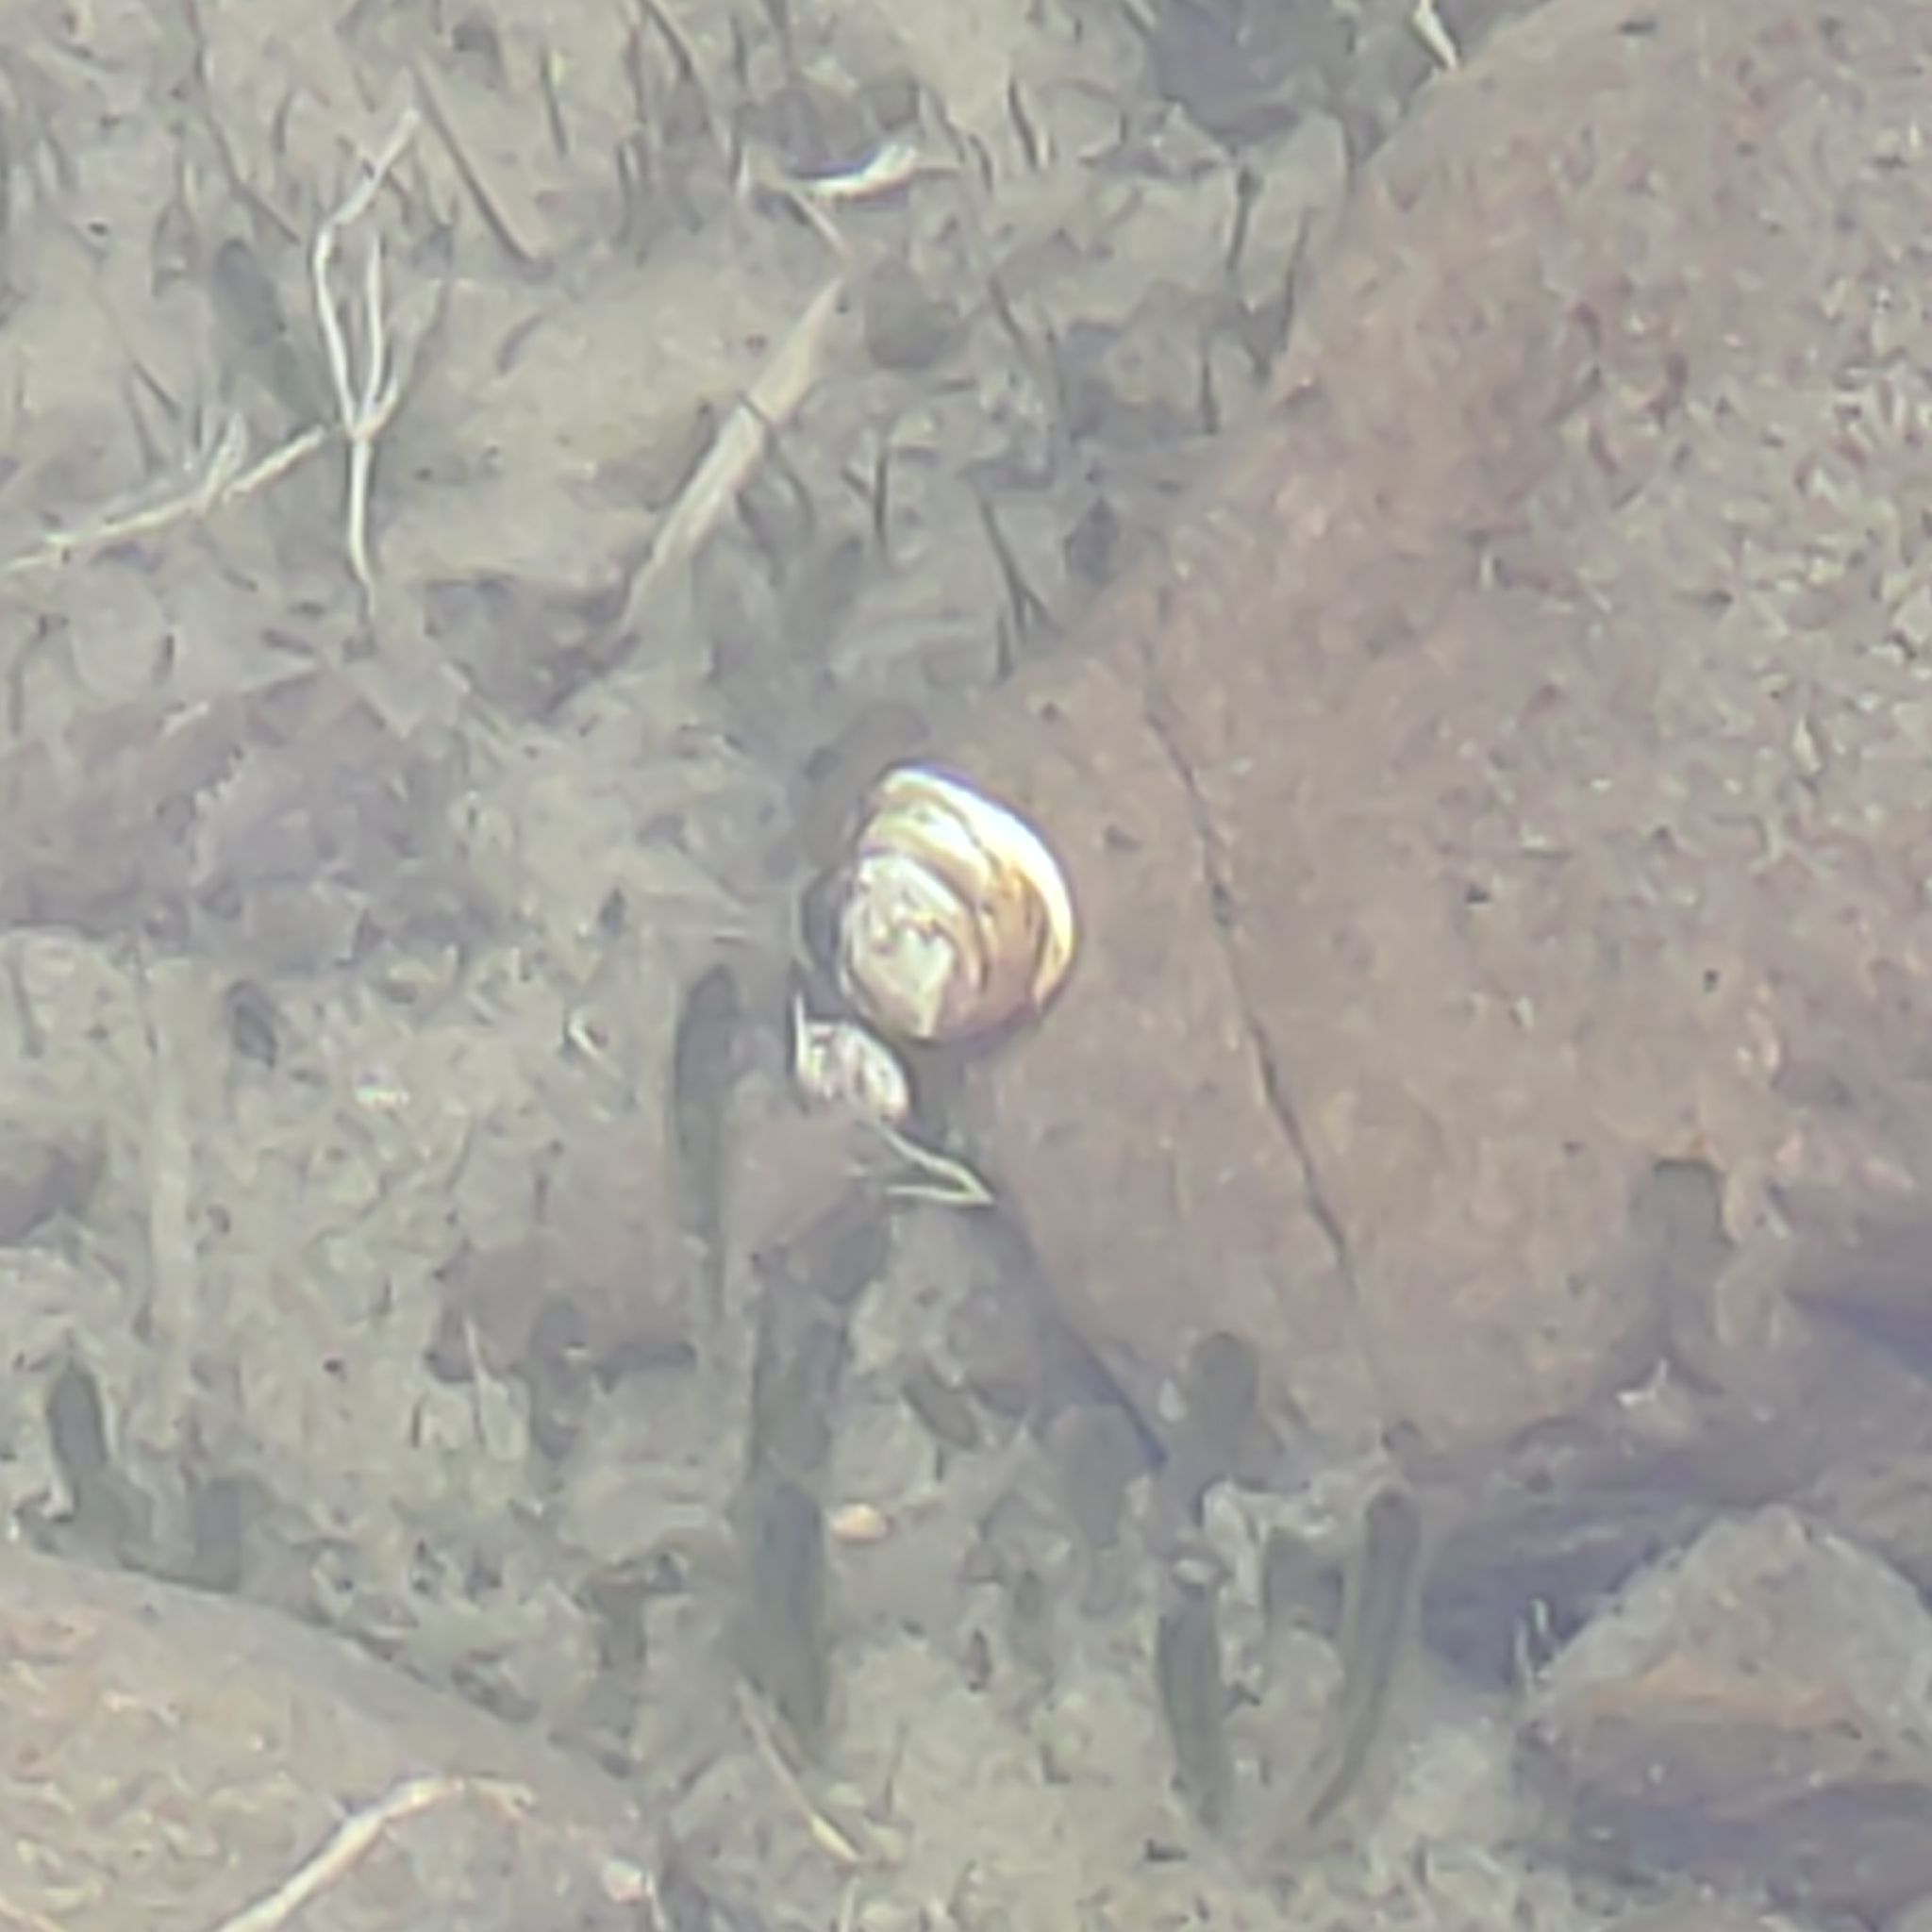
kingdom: Animalia
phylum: Mollusca
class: Bivalvia
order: Unionida
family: Hyriidae
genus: Echyridella
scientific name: Echyridella menziesii
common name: New zealand freshwater mussel
